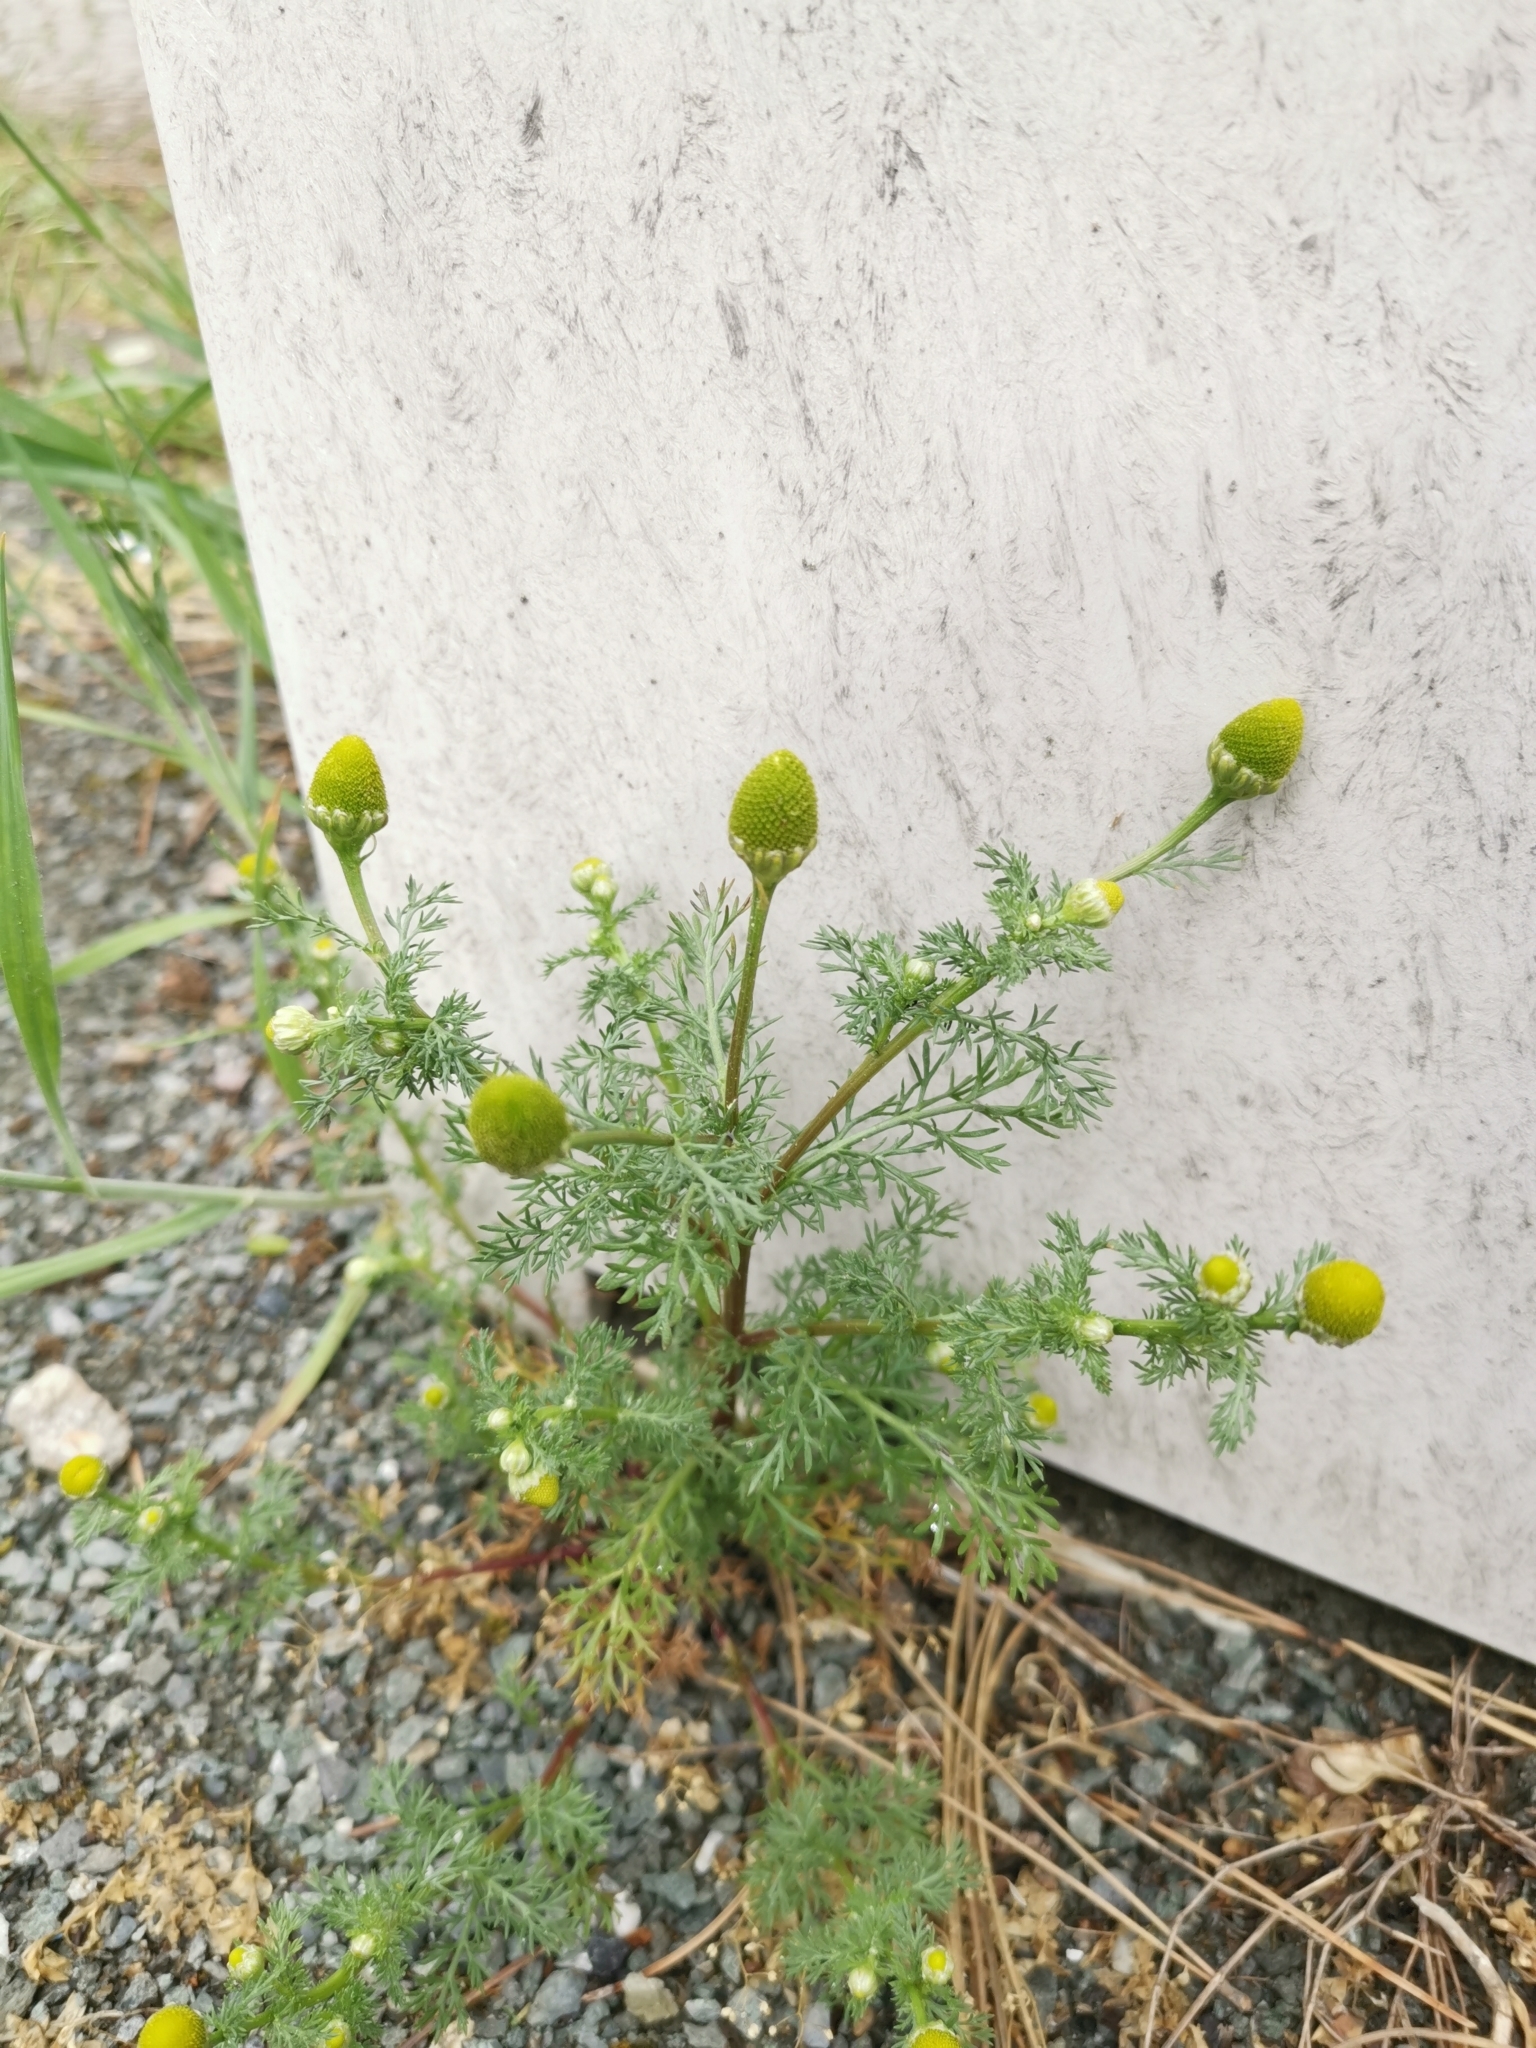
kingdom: Plantae
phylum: Tracheophyta
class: Magnoliopsida
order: Asterales
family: Asteraceae
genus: Matricaria
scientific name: Matricaria discoidea
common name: Disc mayweed
